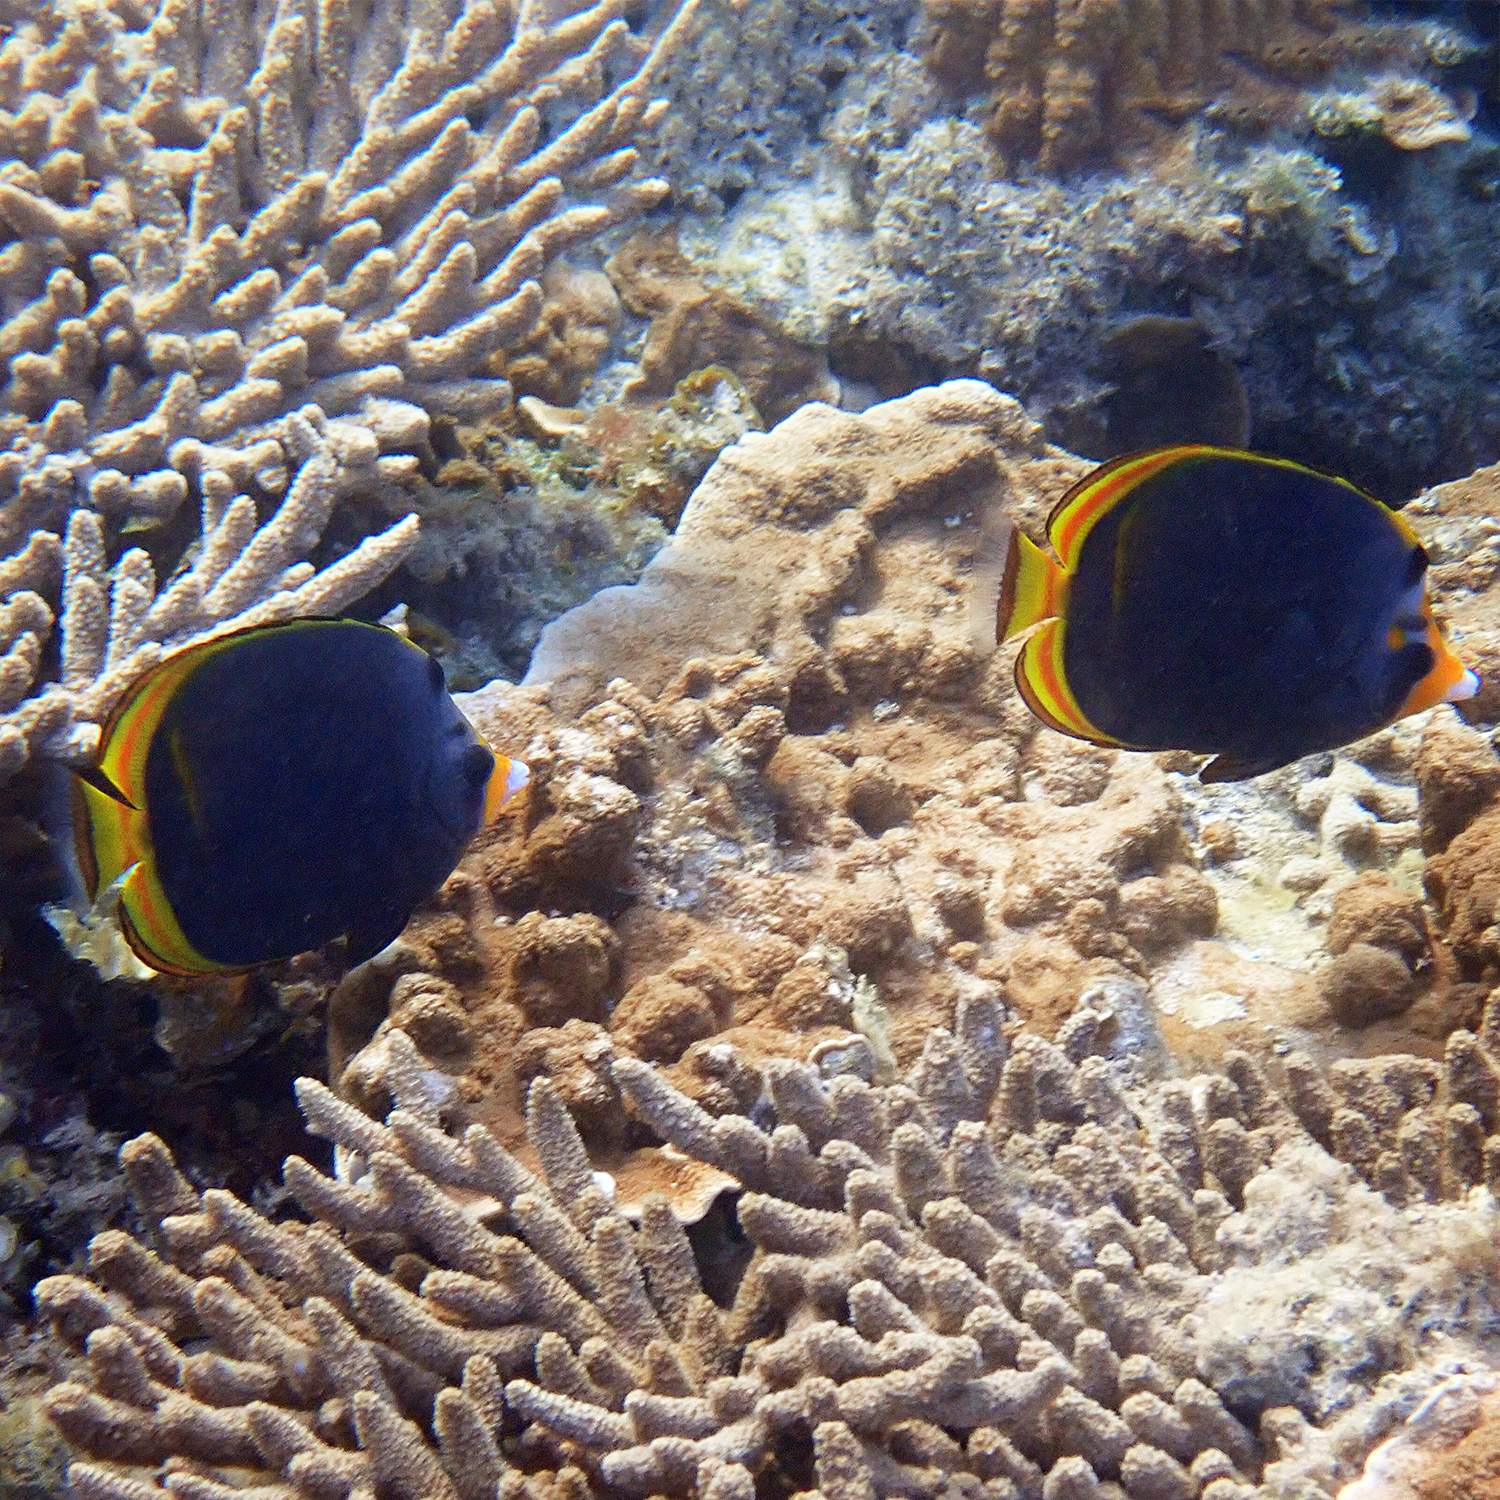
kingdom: Animalia
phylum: Chordata
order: Perciformes
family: Chaetodontidae
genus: Chaetodon
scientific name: Chaetodon flavirostris
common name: Black butterflyfish
